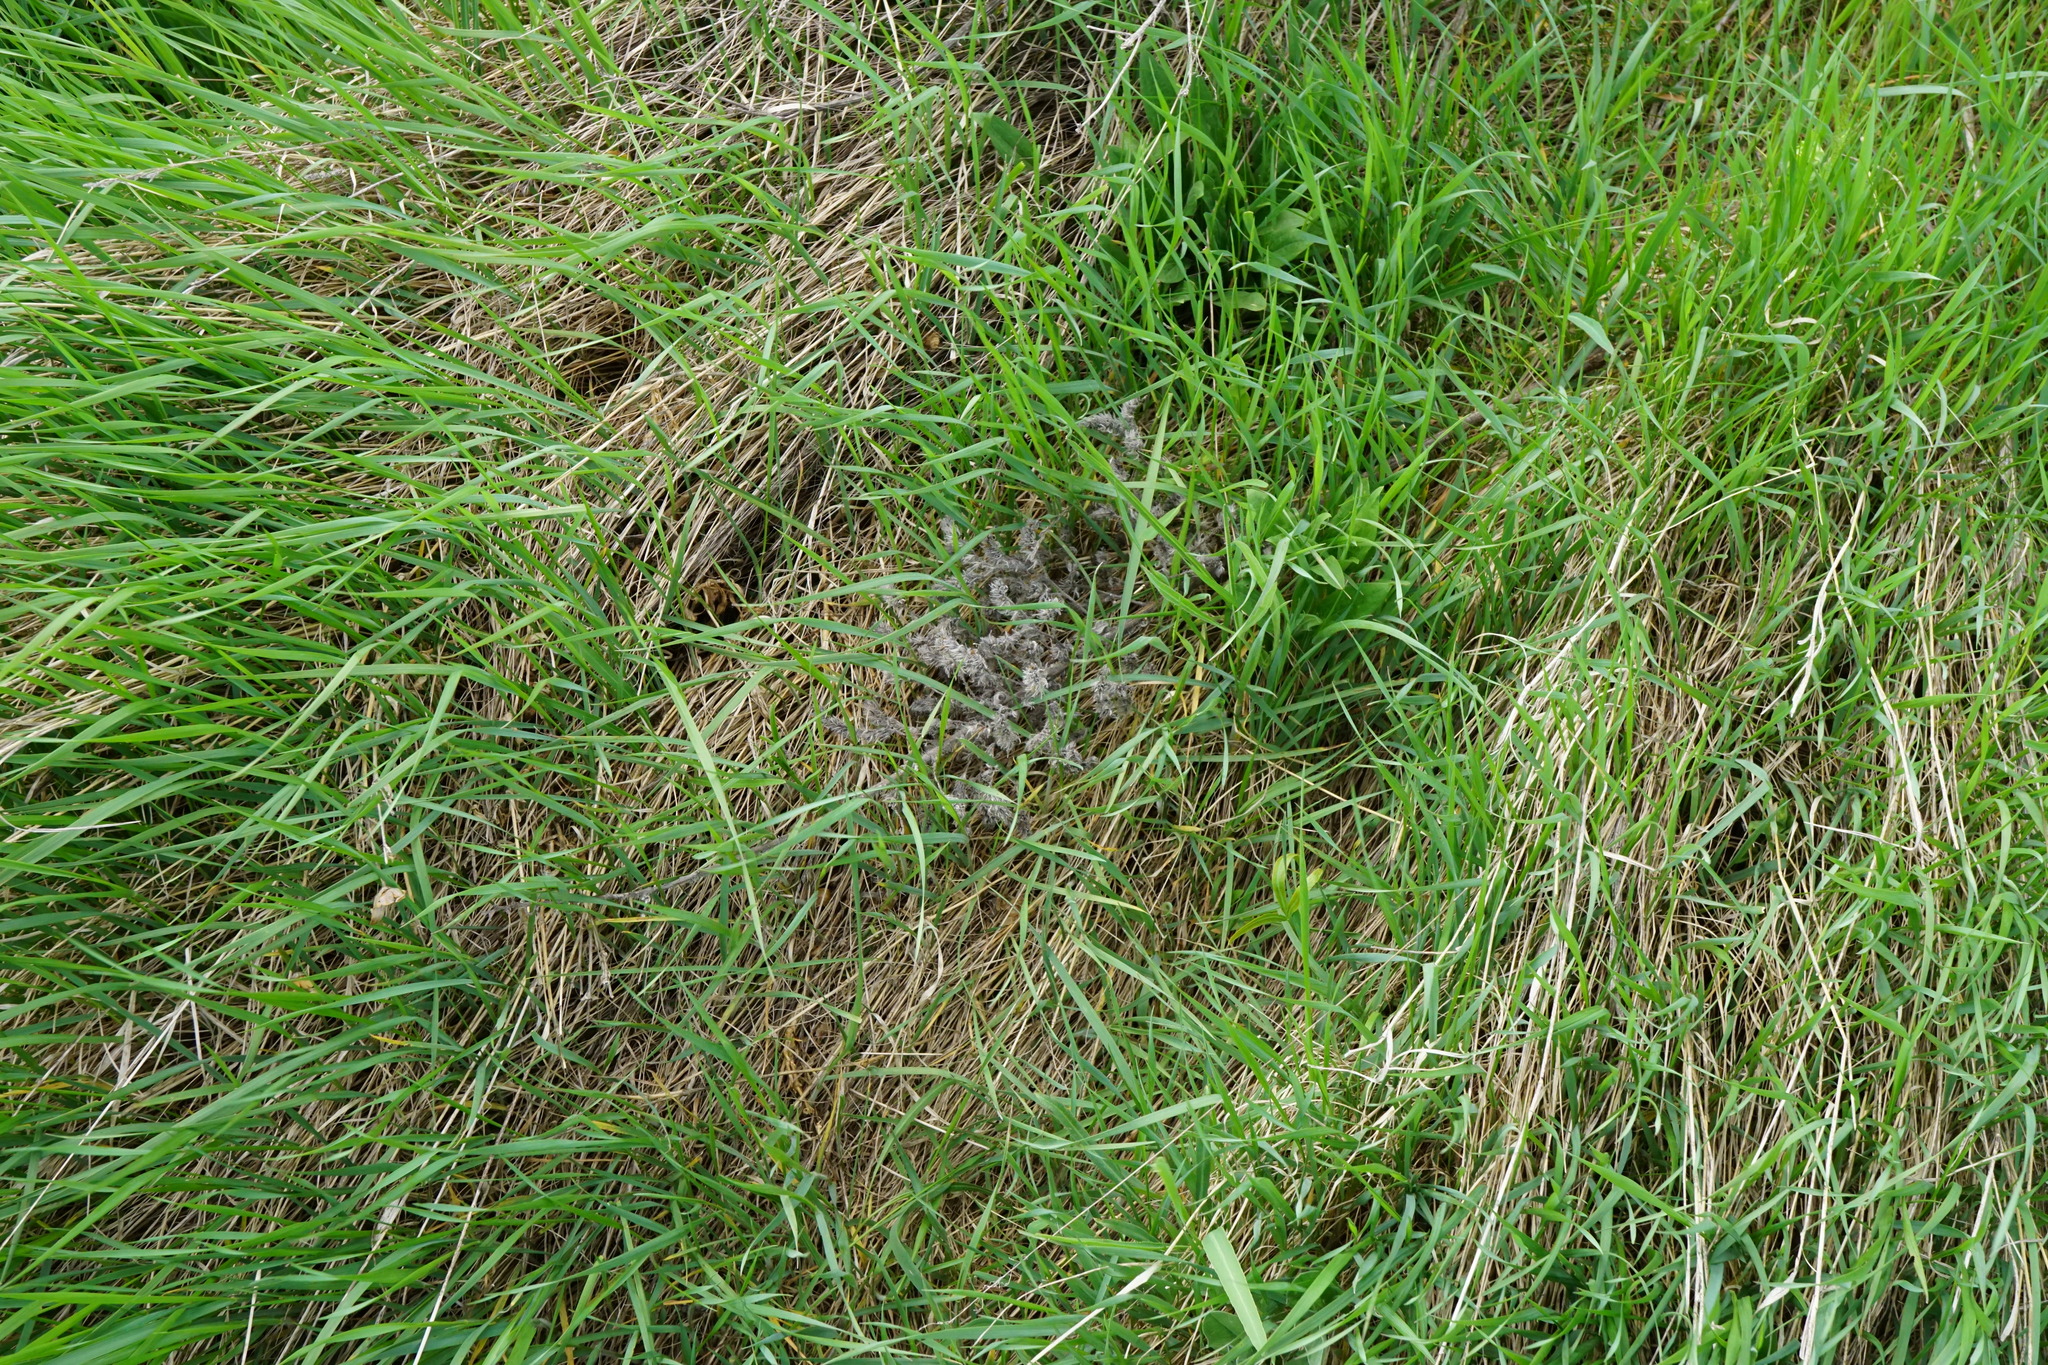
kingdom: Plantae
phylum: Tracheophyta
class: Magnoliopsida
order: Boraginales
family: Boraginaceae
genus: Echium
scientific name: Echium vulgare
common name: Common viper's bugloss
